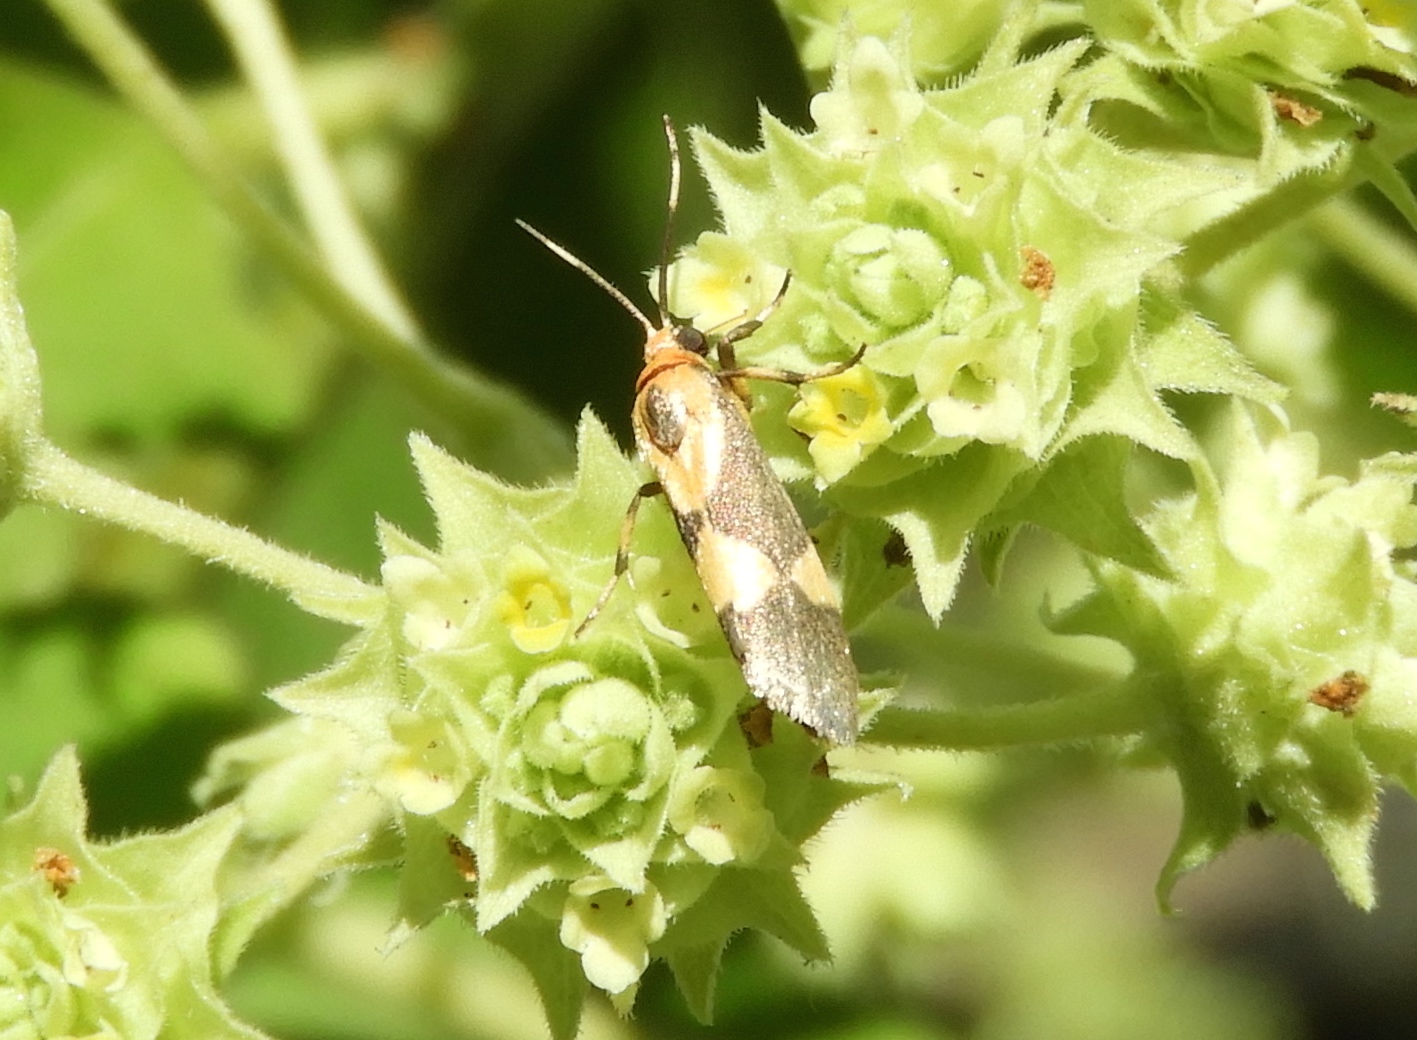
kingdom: Animalia
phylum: Arthropoda
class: Insecta
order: Lepidoptera
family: Erebidae
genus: Cisthene
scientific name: Cisthene
